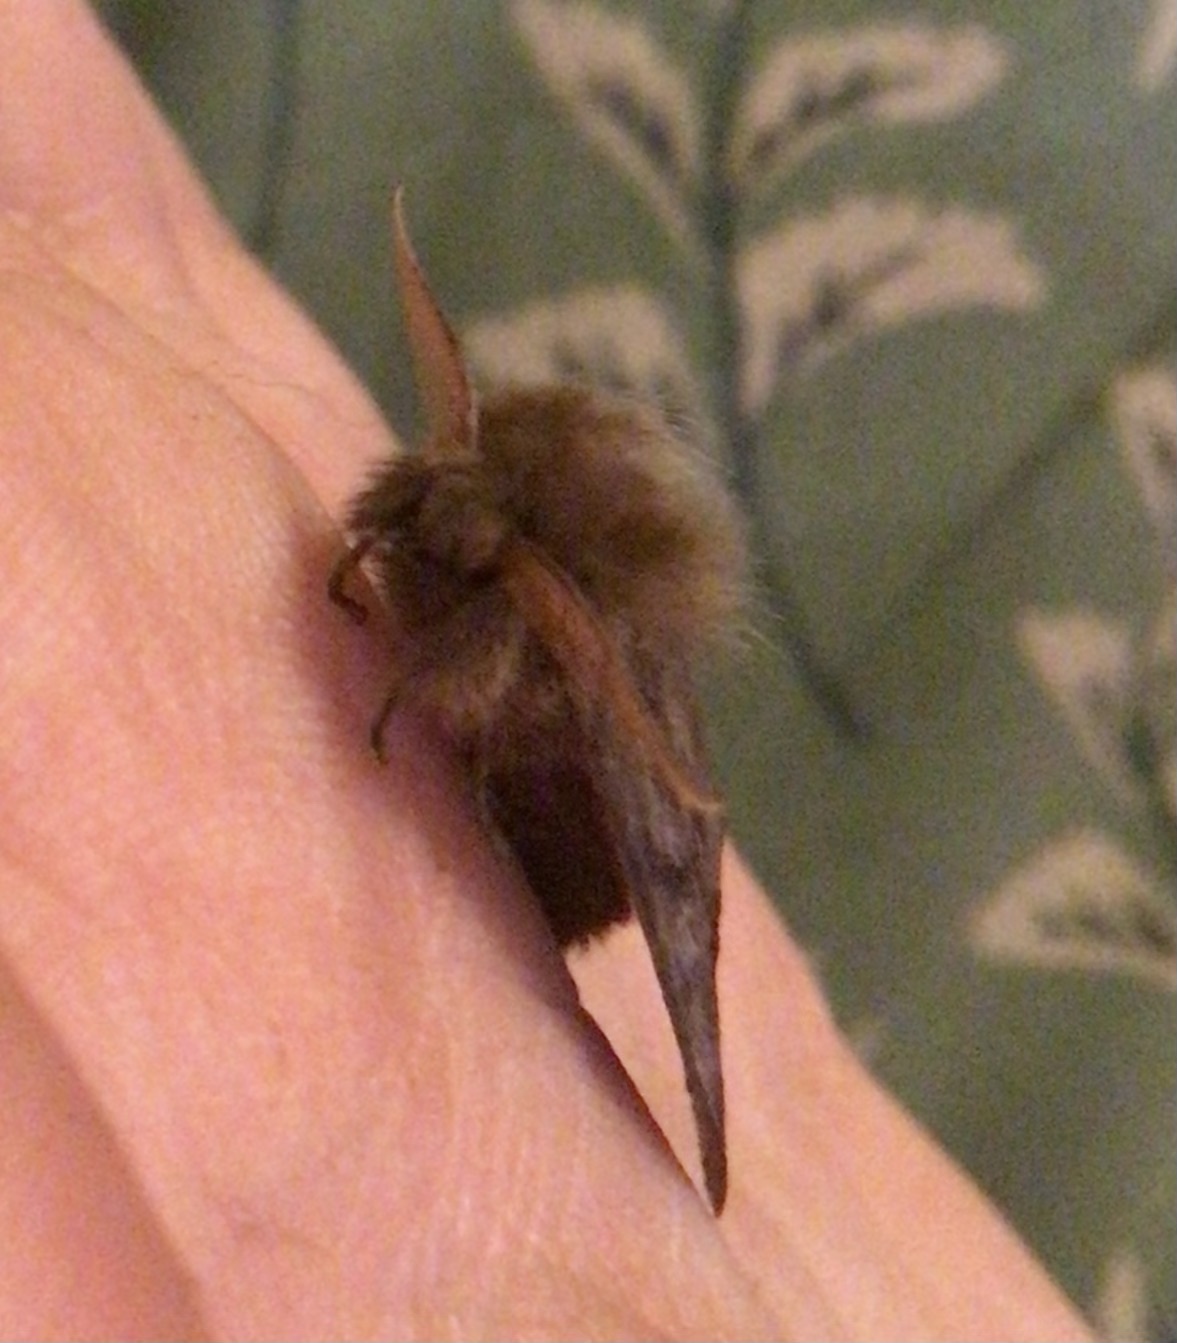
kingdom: Animalia
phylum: Arthropoda
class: Insecta
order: Lepidoptera
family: Erebidae
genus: Leptocneria
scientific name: Leptocneria reducta
